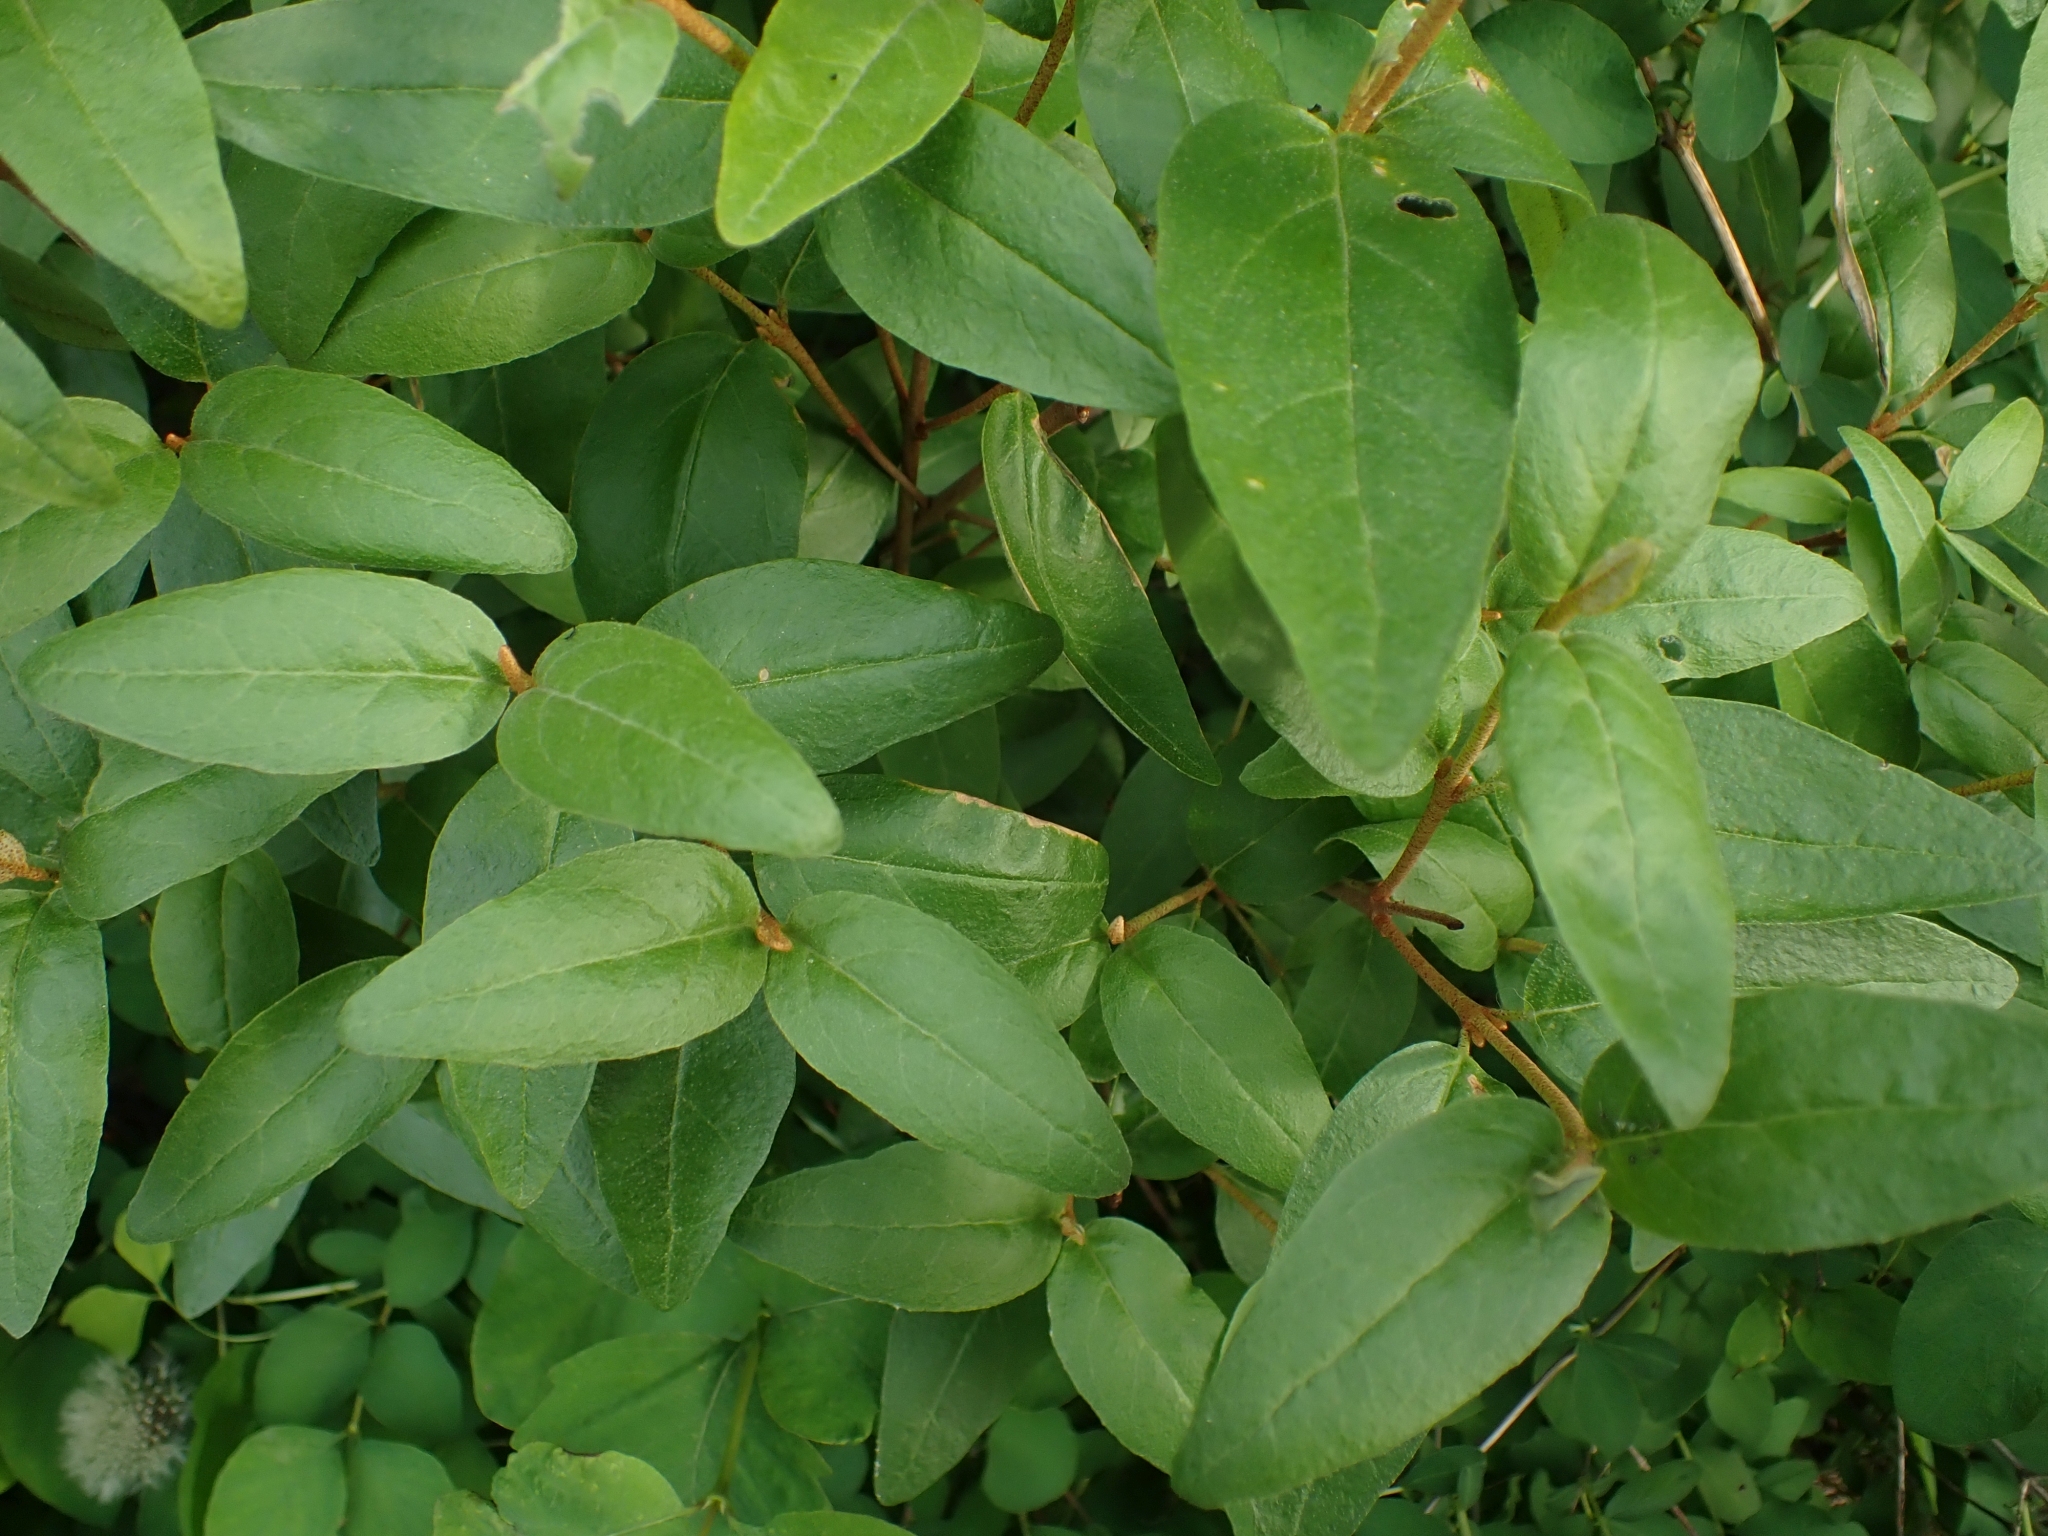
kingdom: Plantae
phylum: Tracheophyta
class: Magnoliopsida
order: Rosales
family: Elaeagnaceae
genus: Shepherdia
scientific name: Shepherdia canadensis
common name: Soapberry
